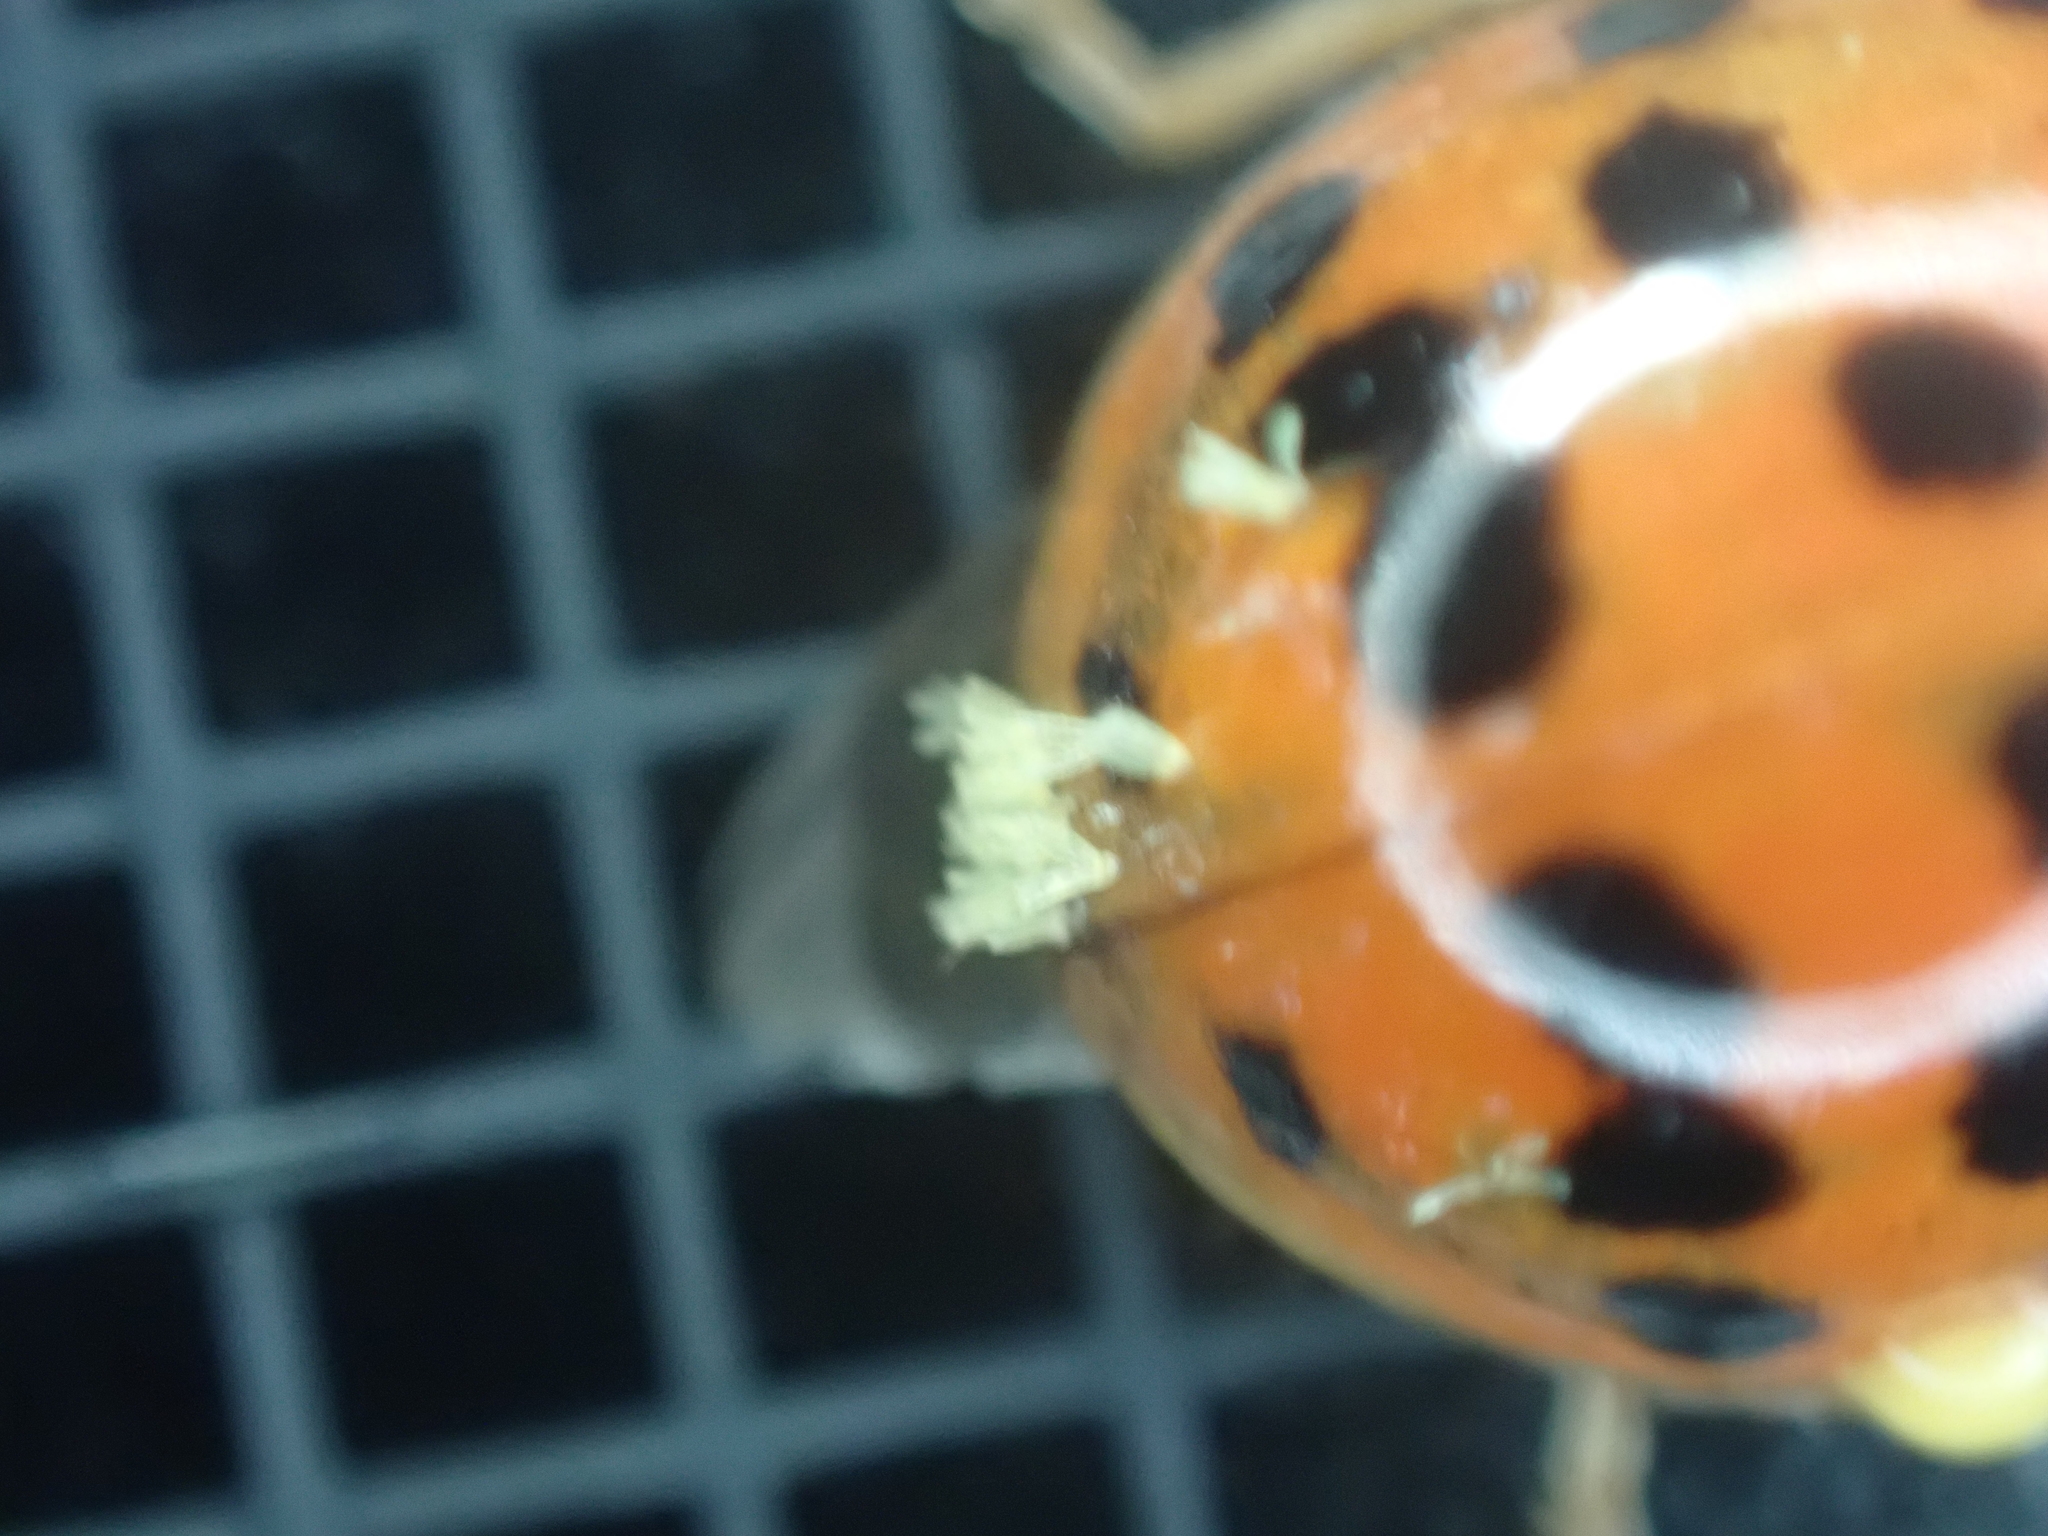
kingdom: Fungi
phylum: Ascomycota
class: Laboulbeniomycetes
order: Laboulbeniales
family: Laboulbeniaceae
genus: Hesperomyces
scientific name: Hesperomyces harmoniae
